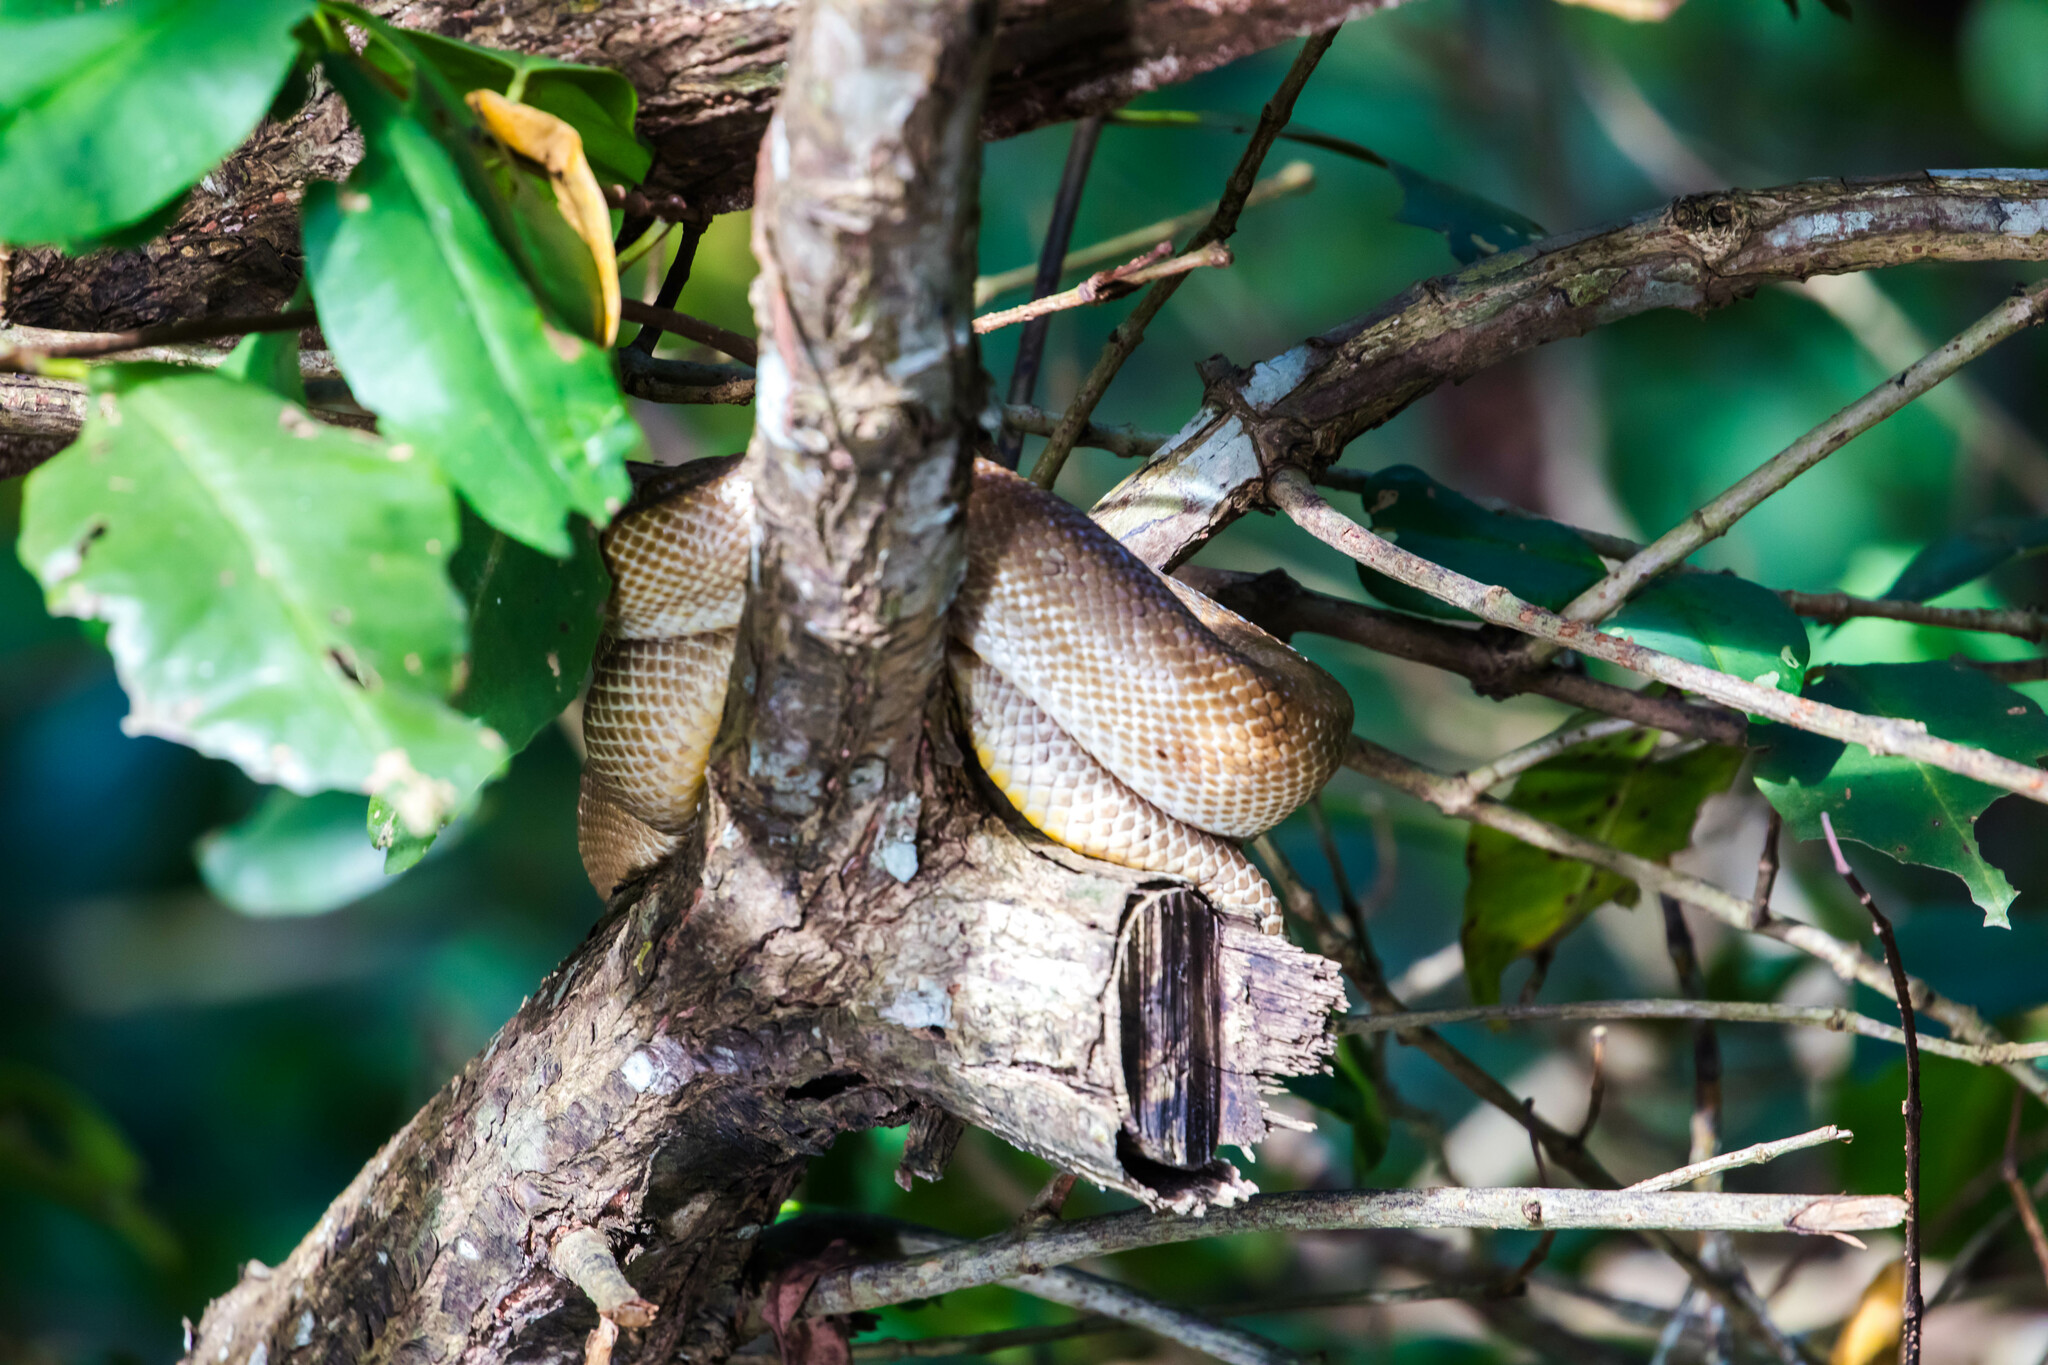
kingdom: Animalia
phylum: Chordata
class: Squamata
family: Boidae
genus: Corallus
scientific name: Corallus ruschenbergerii
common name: Dormilona
